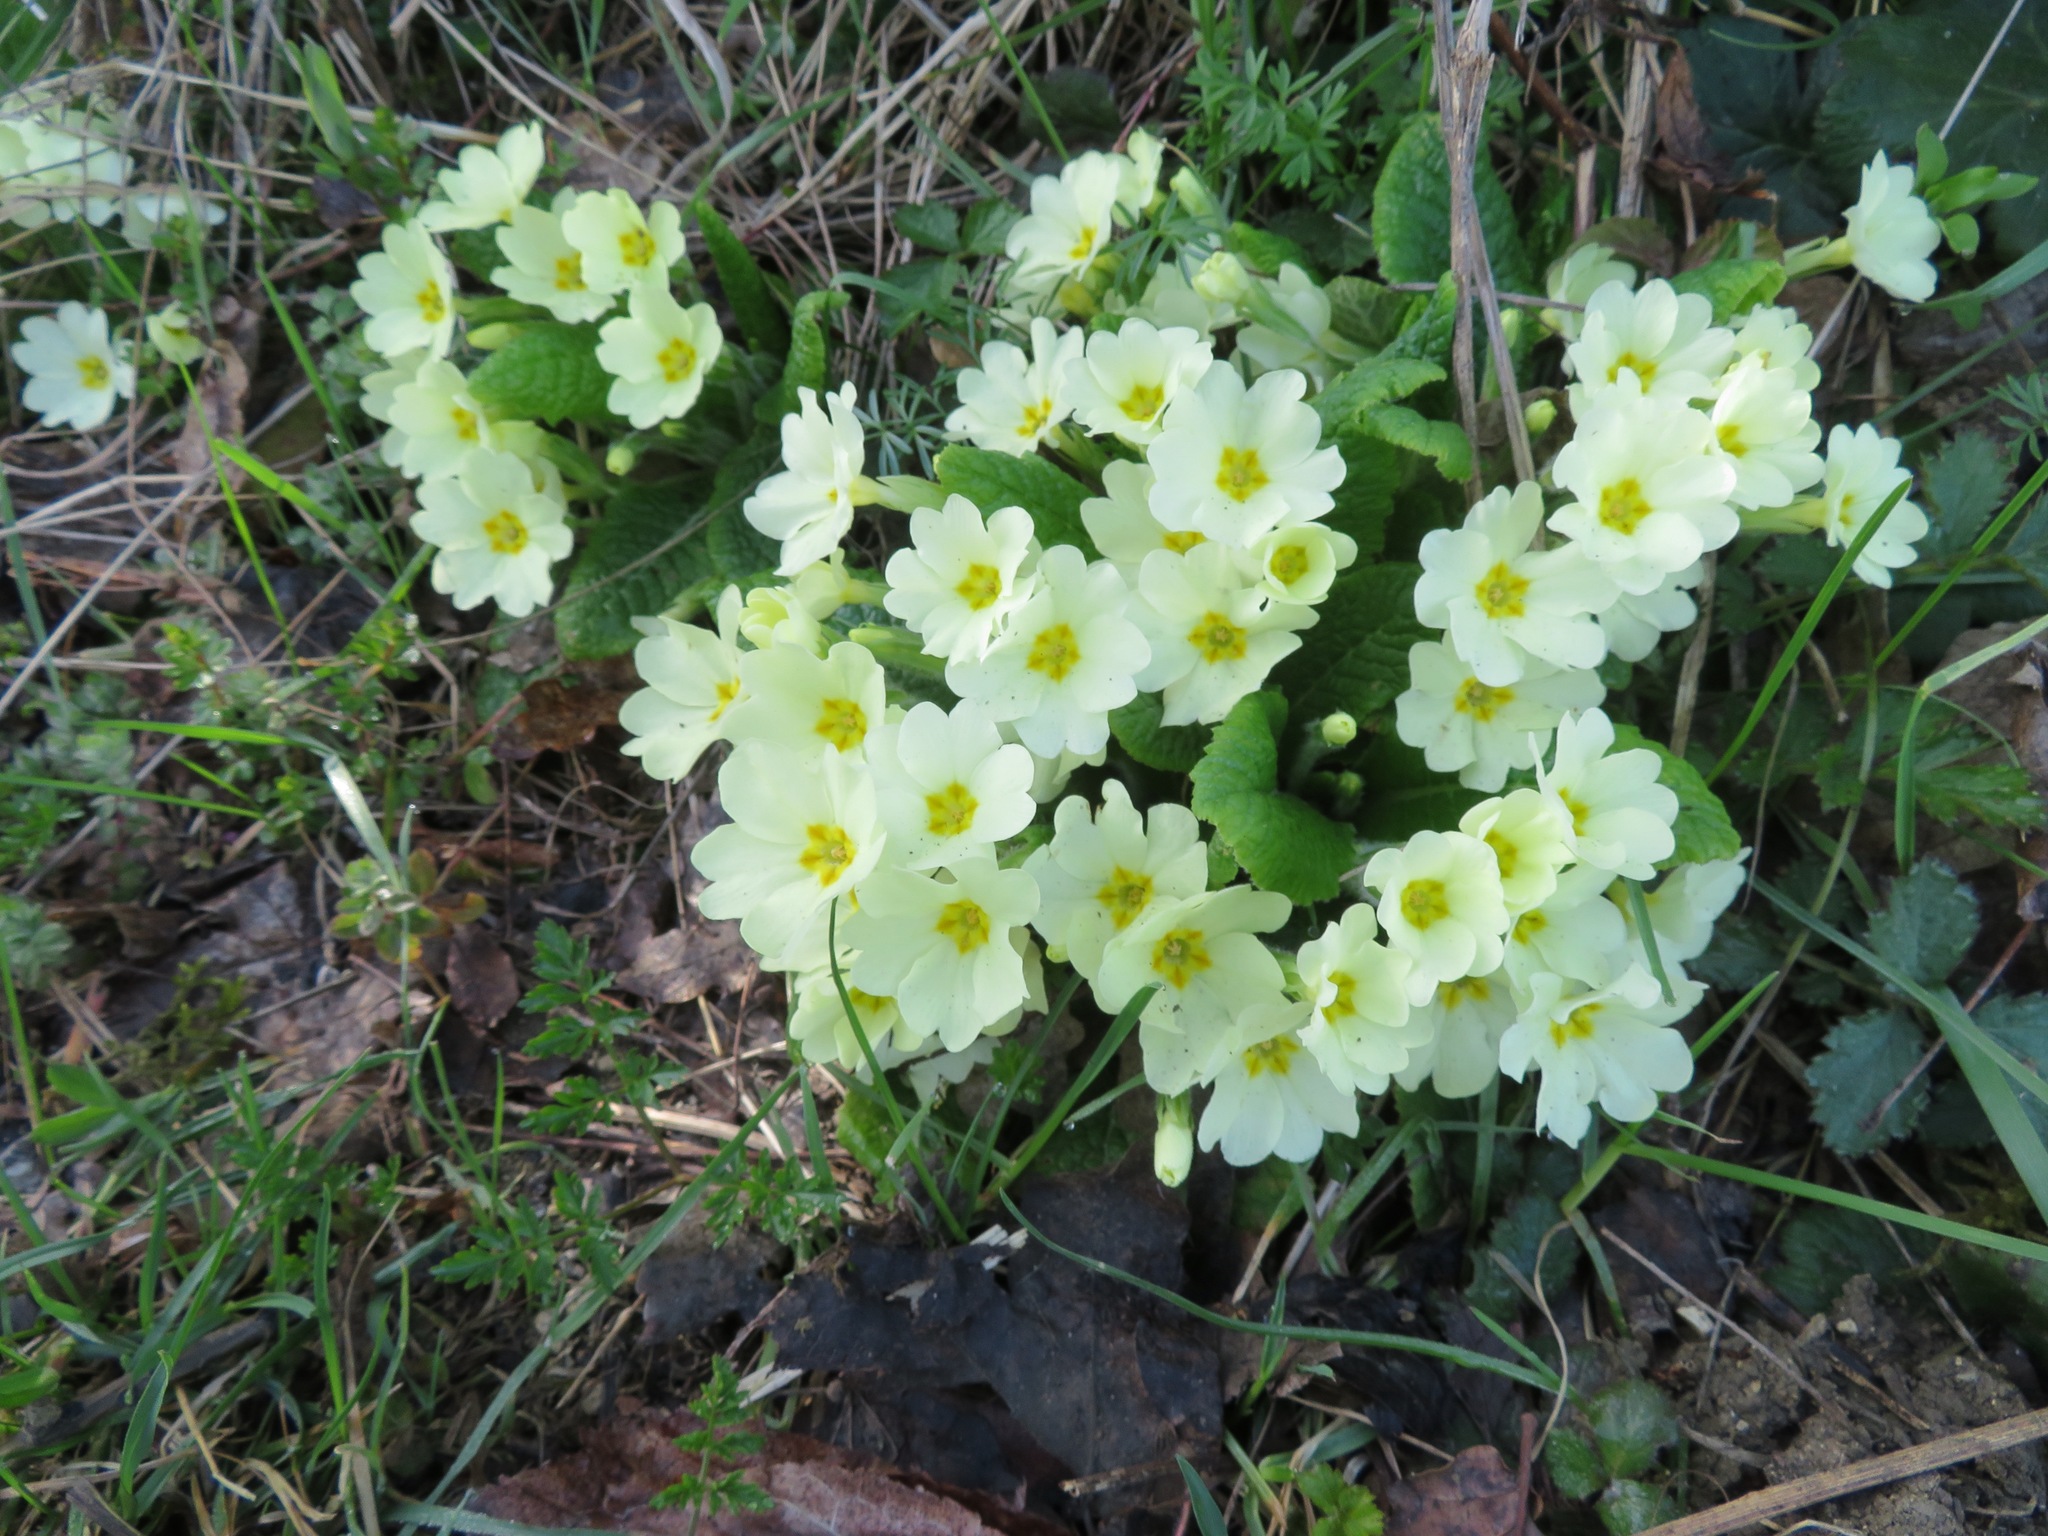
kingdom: Plantae
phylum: Tracheophyta
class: Magnoliopsida
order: Ericales
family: Primulaceae
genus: Primula
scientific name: Primula vulgaris
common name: Primrose
